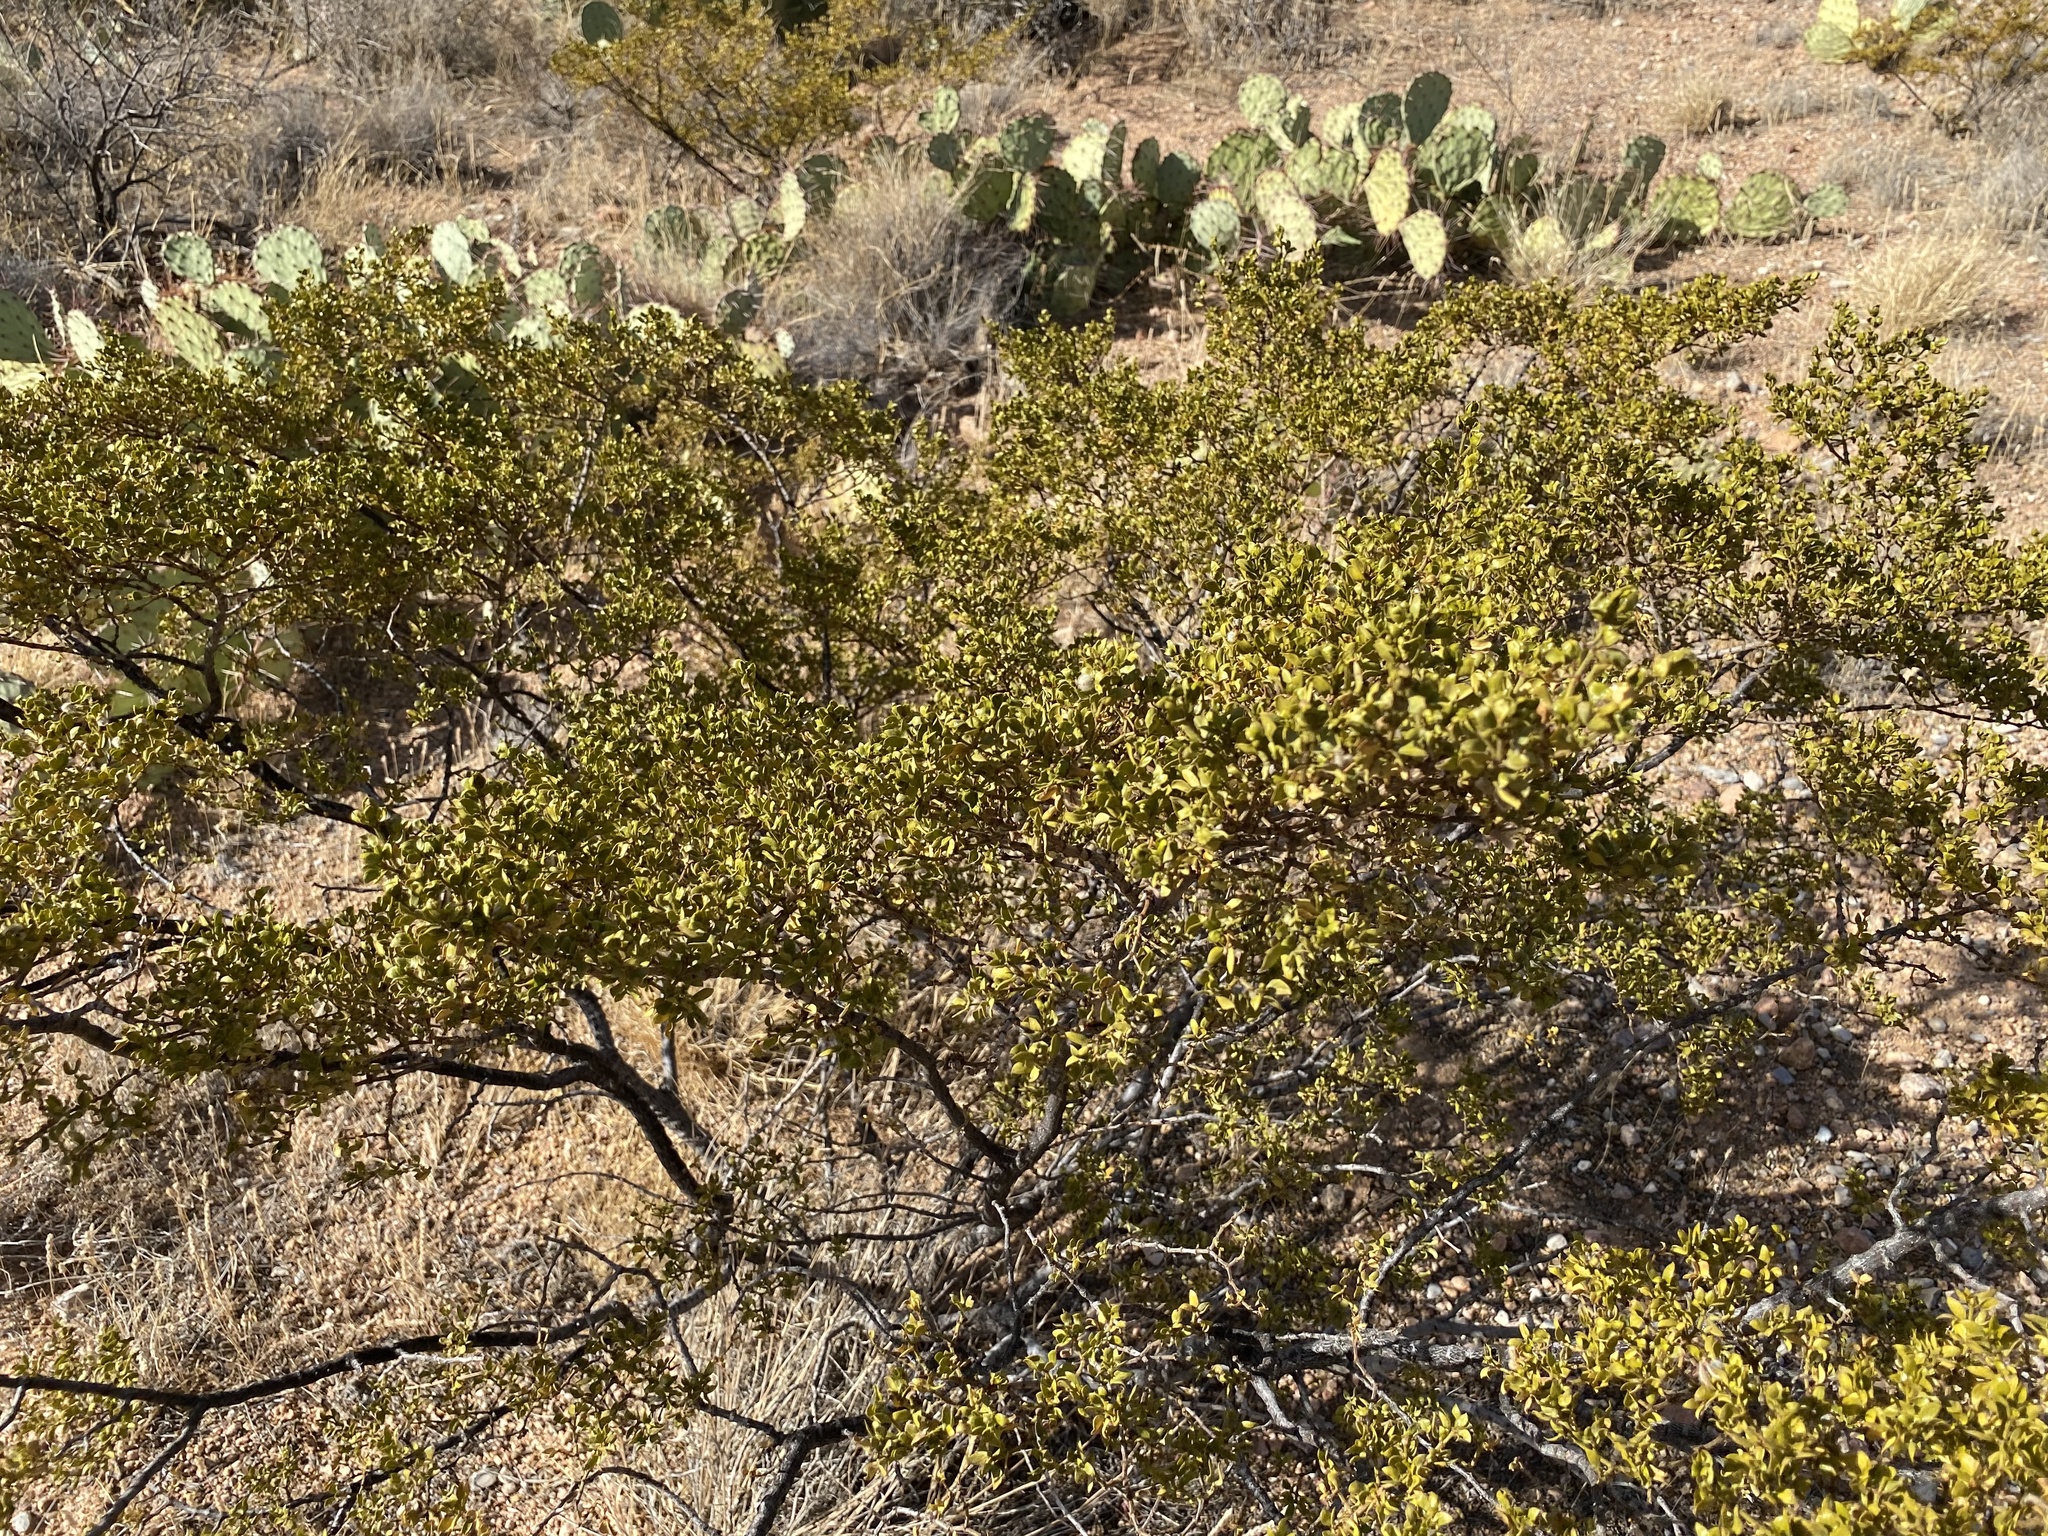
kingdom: Plantae
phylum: Tracheophyta
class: Magnoliopsida
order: Zygophyllales
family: Zygophyllaceae
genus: Larrea
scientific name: Larrea tridentata
